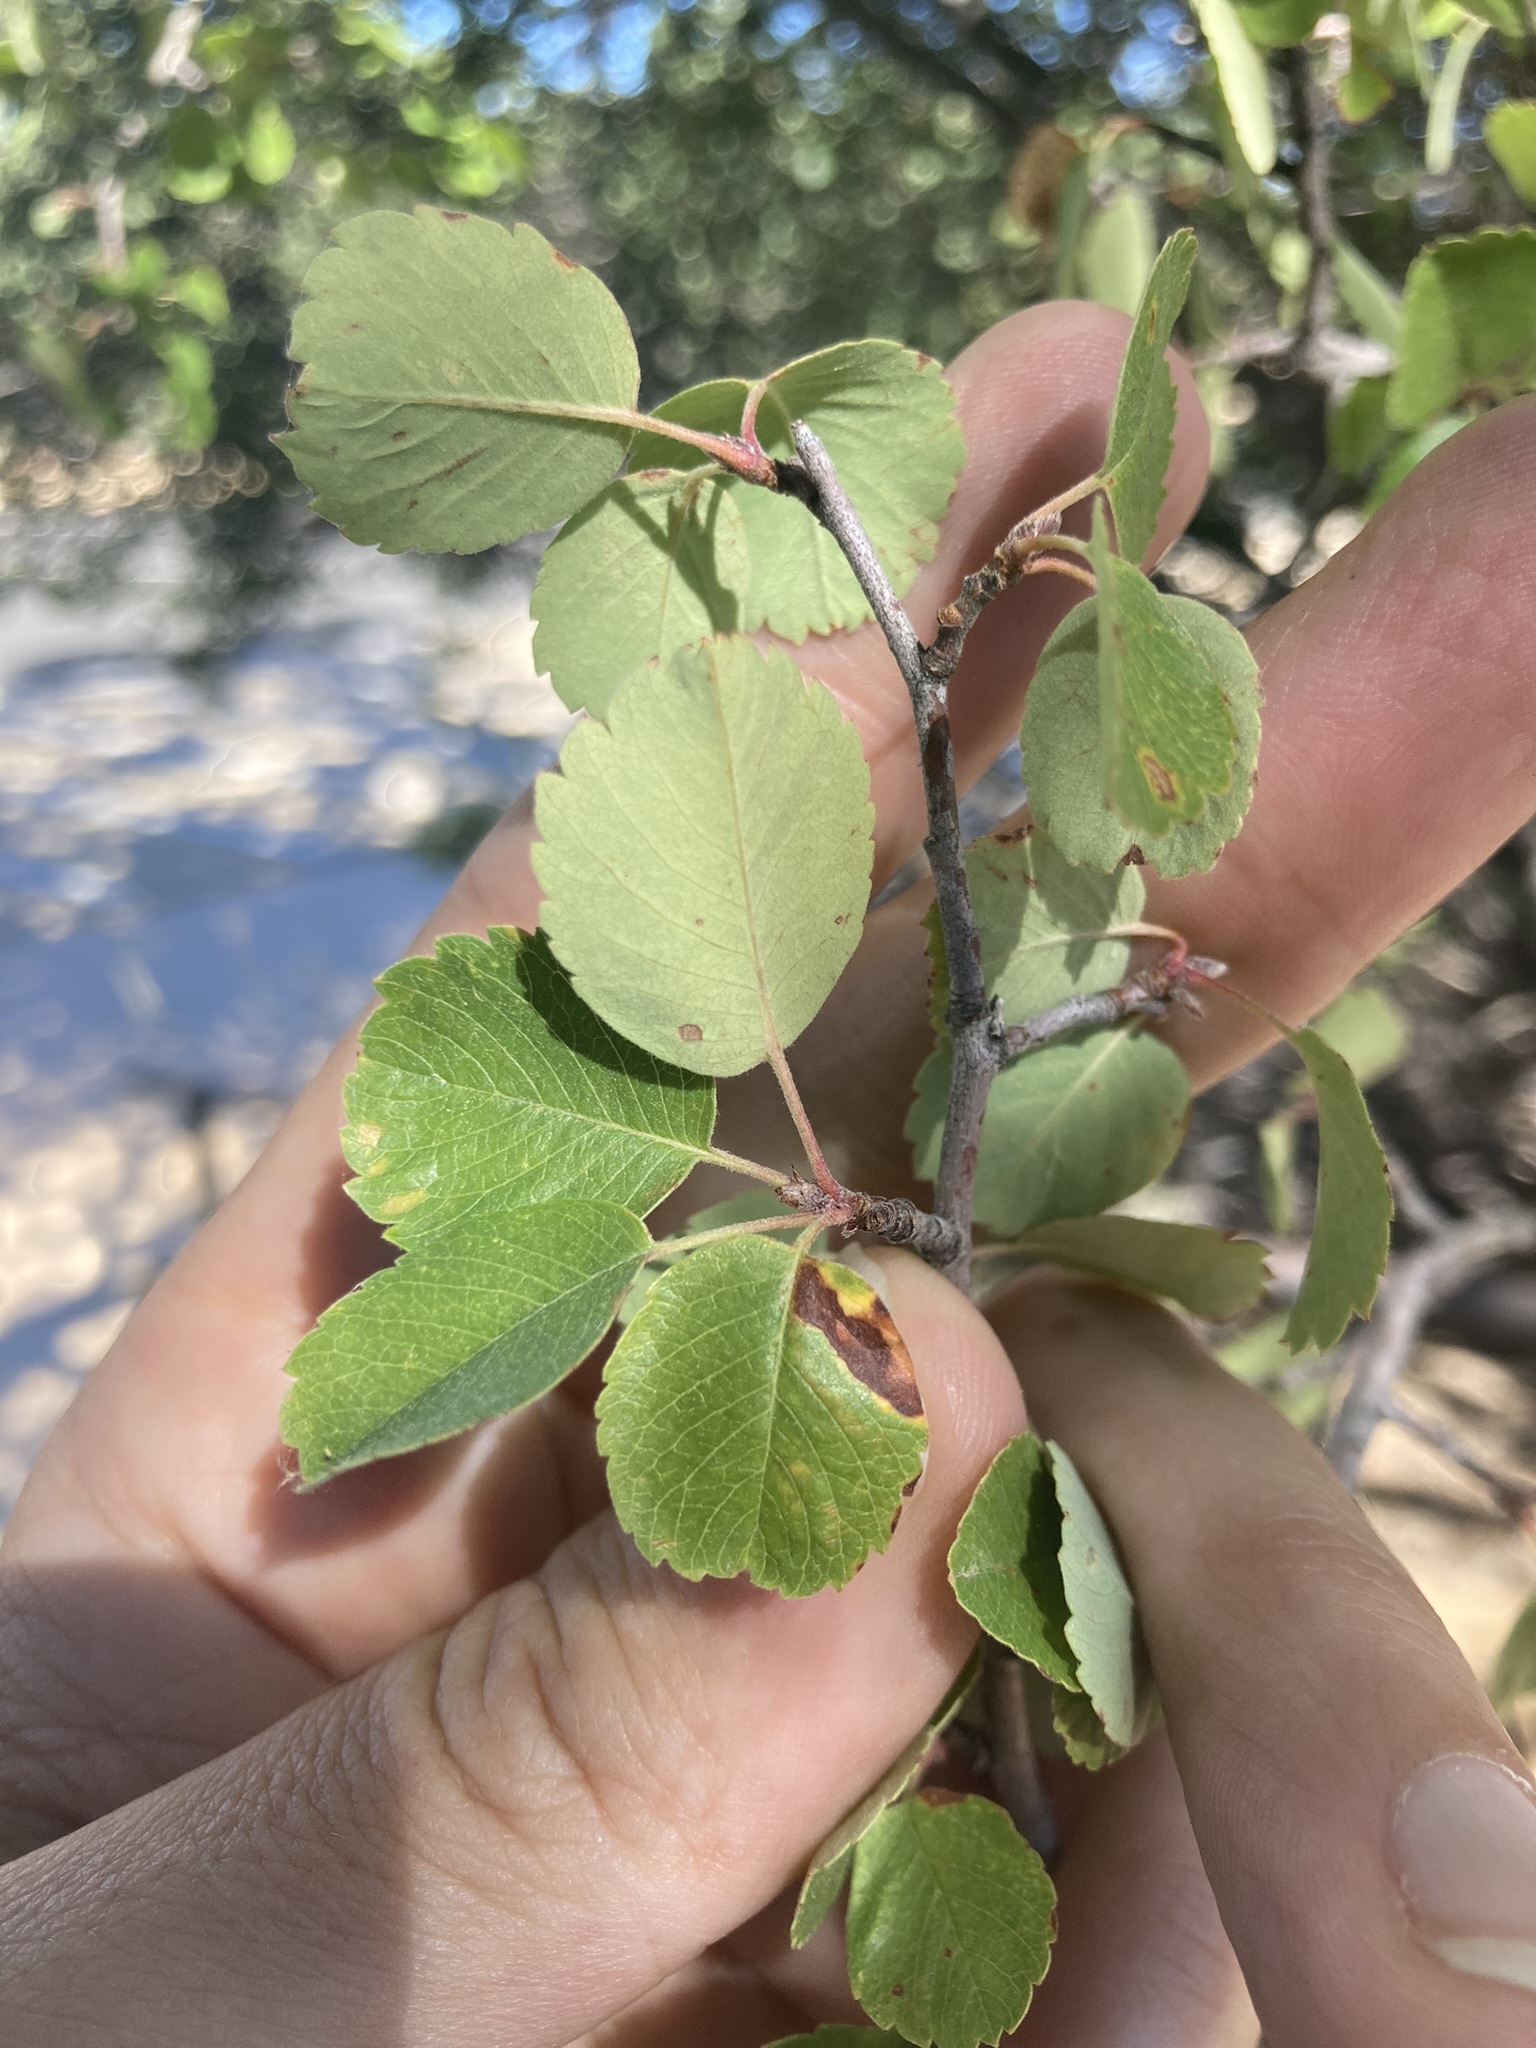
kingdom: Plantae
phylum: Tracheophyta
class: Magnoliopsida
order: Rosales
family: Rosaceae
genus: Amelanchier
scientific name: Amelanchier utahensis
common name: Utah serviceberry
